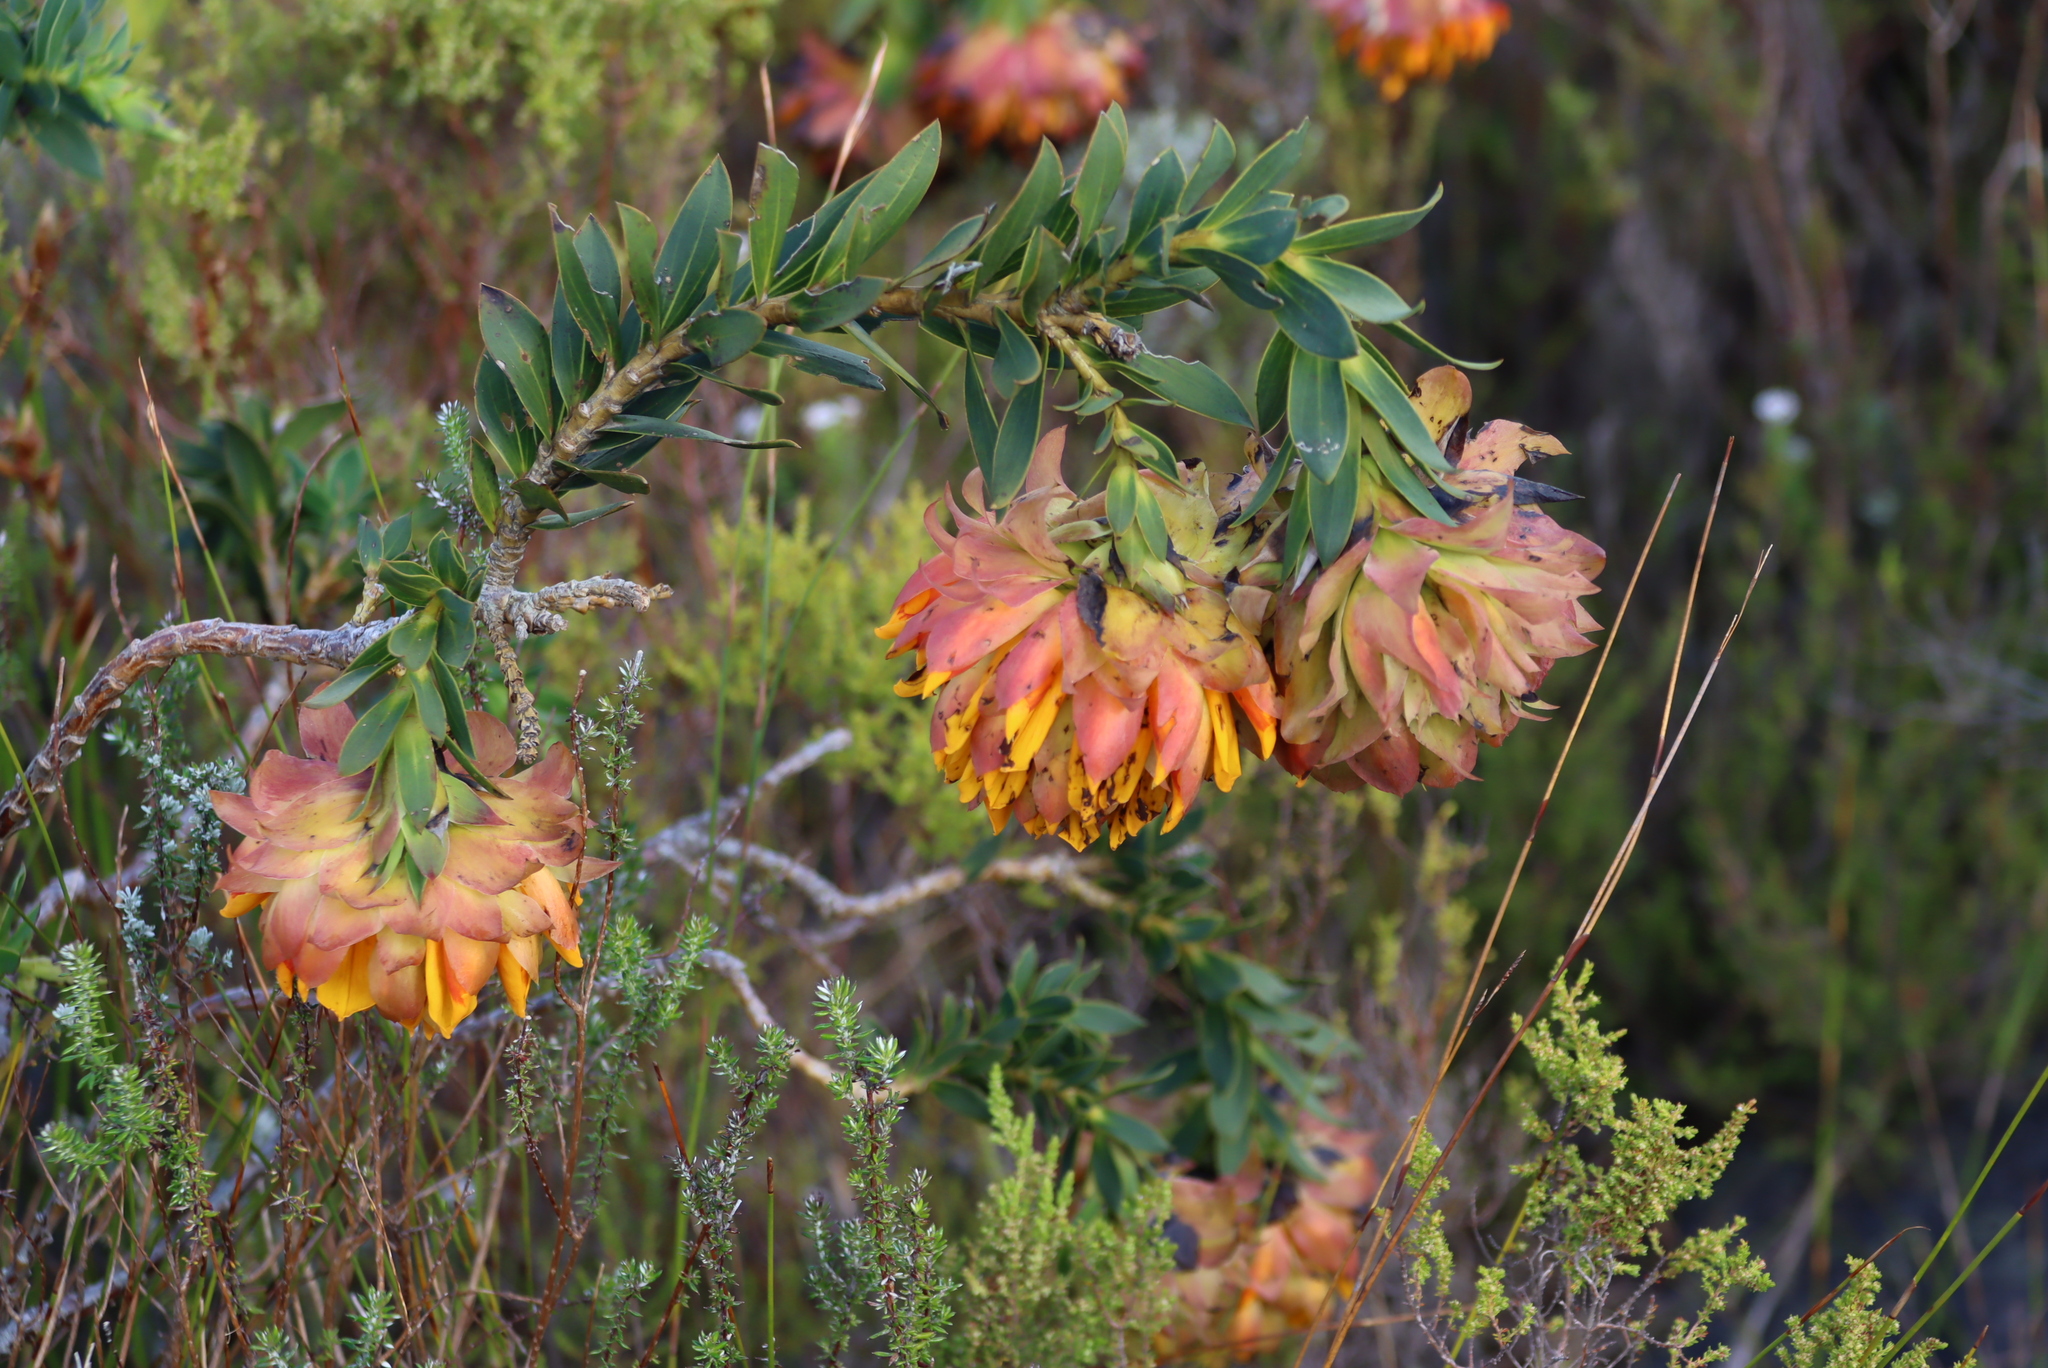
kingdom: Plantae
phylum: Tracheophyta
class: Magnoliopsida
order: Fabales
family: Fabaceae
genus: Liparia
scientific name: Liparia splendens
